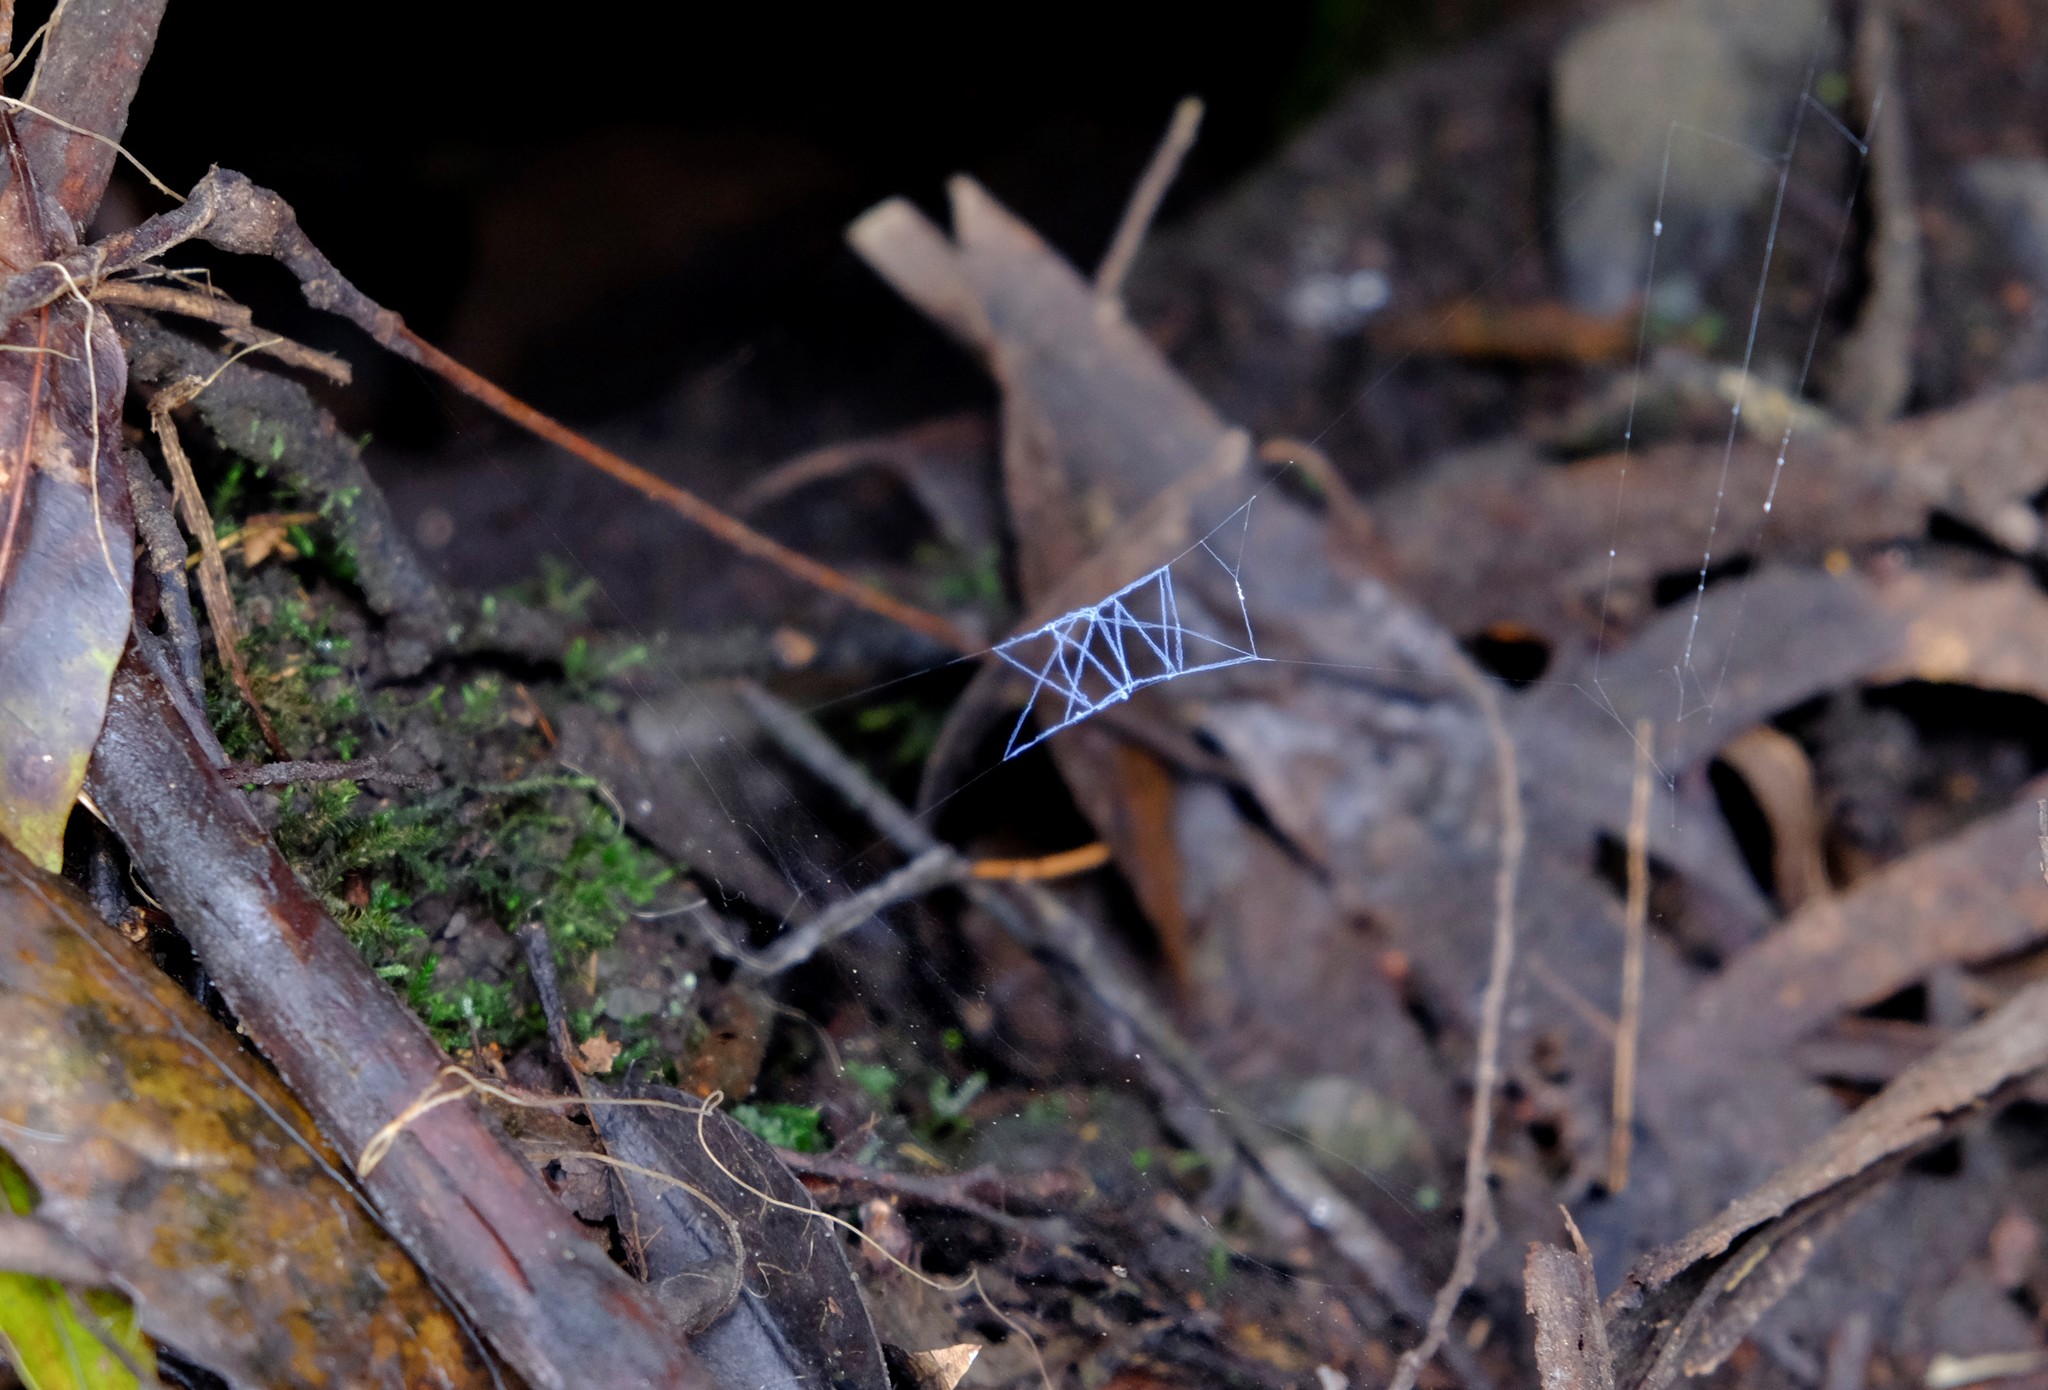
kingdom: Animalia
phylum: Arthropoda
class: Arachnida
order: Araneae
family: Gradungulidae
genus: Progradungula
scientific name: Progradungula otwayensis
